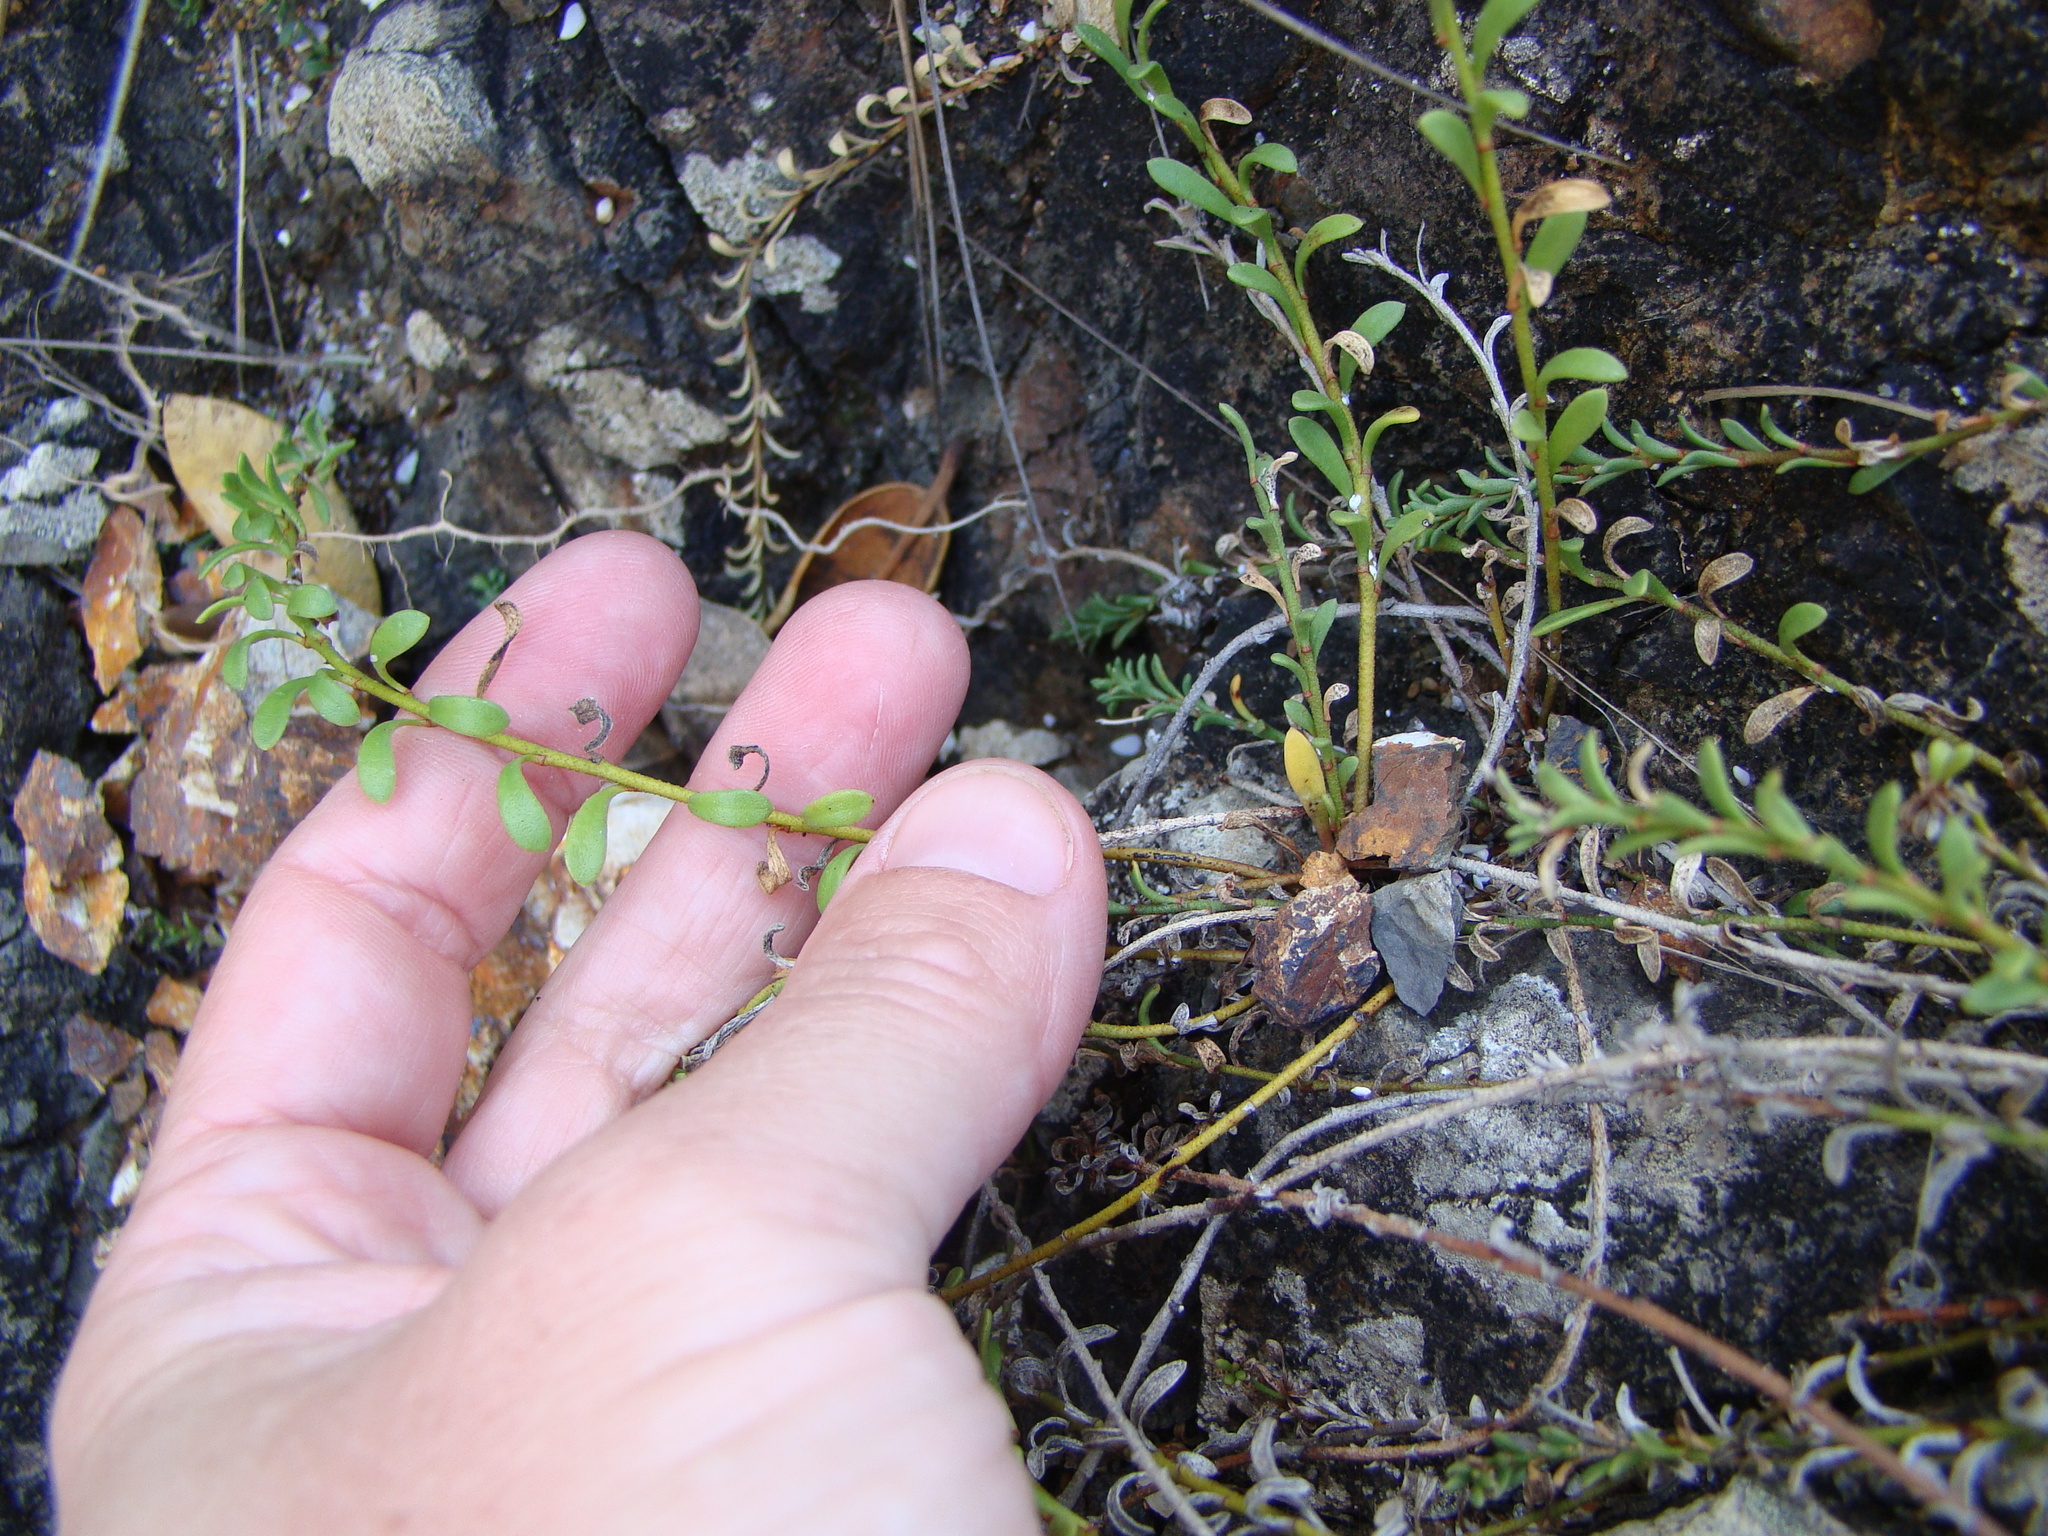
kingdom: Plantae
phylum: Tracheophyta
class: Magnoliopsida
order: Ericales
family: Primulaceae
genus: Samolus
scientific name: Samolus repens
